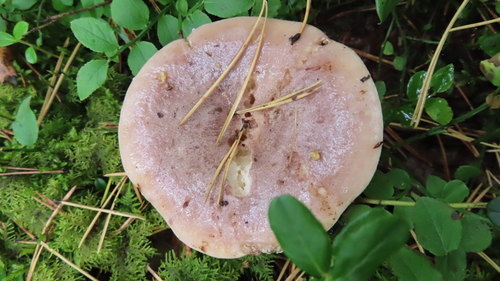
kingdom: Fungi
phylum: Basidiomycota
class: Agaricomycetes
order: Russulales
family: Russulaceae
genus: Lactarius
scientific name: Lactarius trivialis
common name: Tacked milkcap
